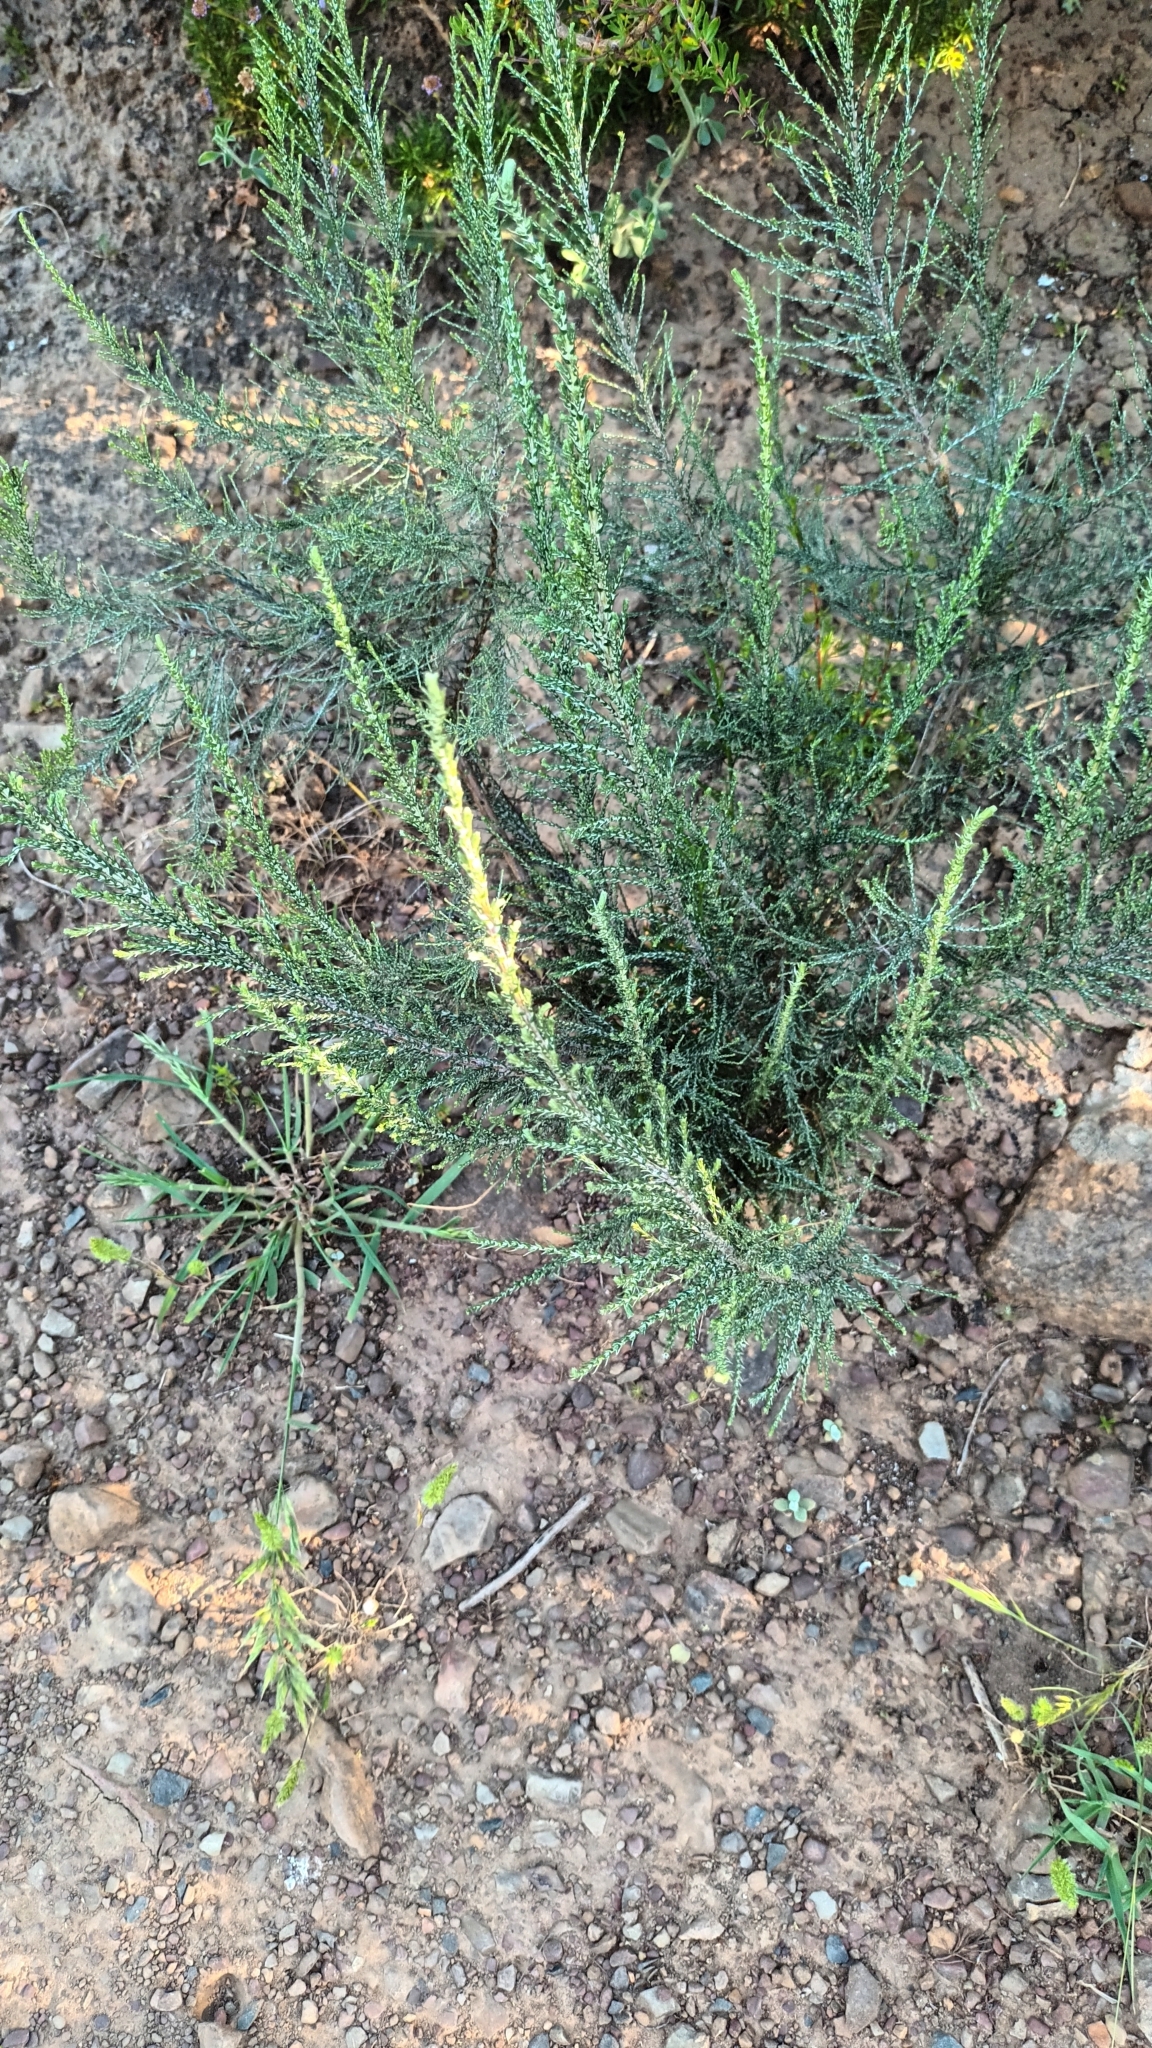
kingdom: Plantae
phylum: Tracheophyta
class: Magnoliopsida
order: Asterales
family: Asteraceae
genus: Dicerothamnus
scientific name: Dicerothamnus rhinocerotis
